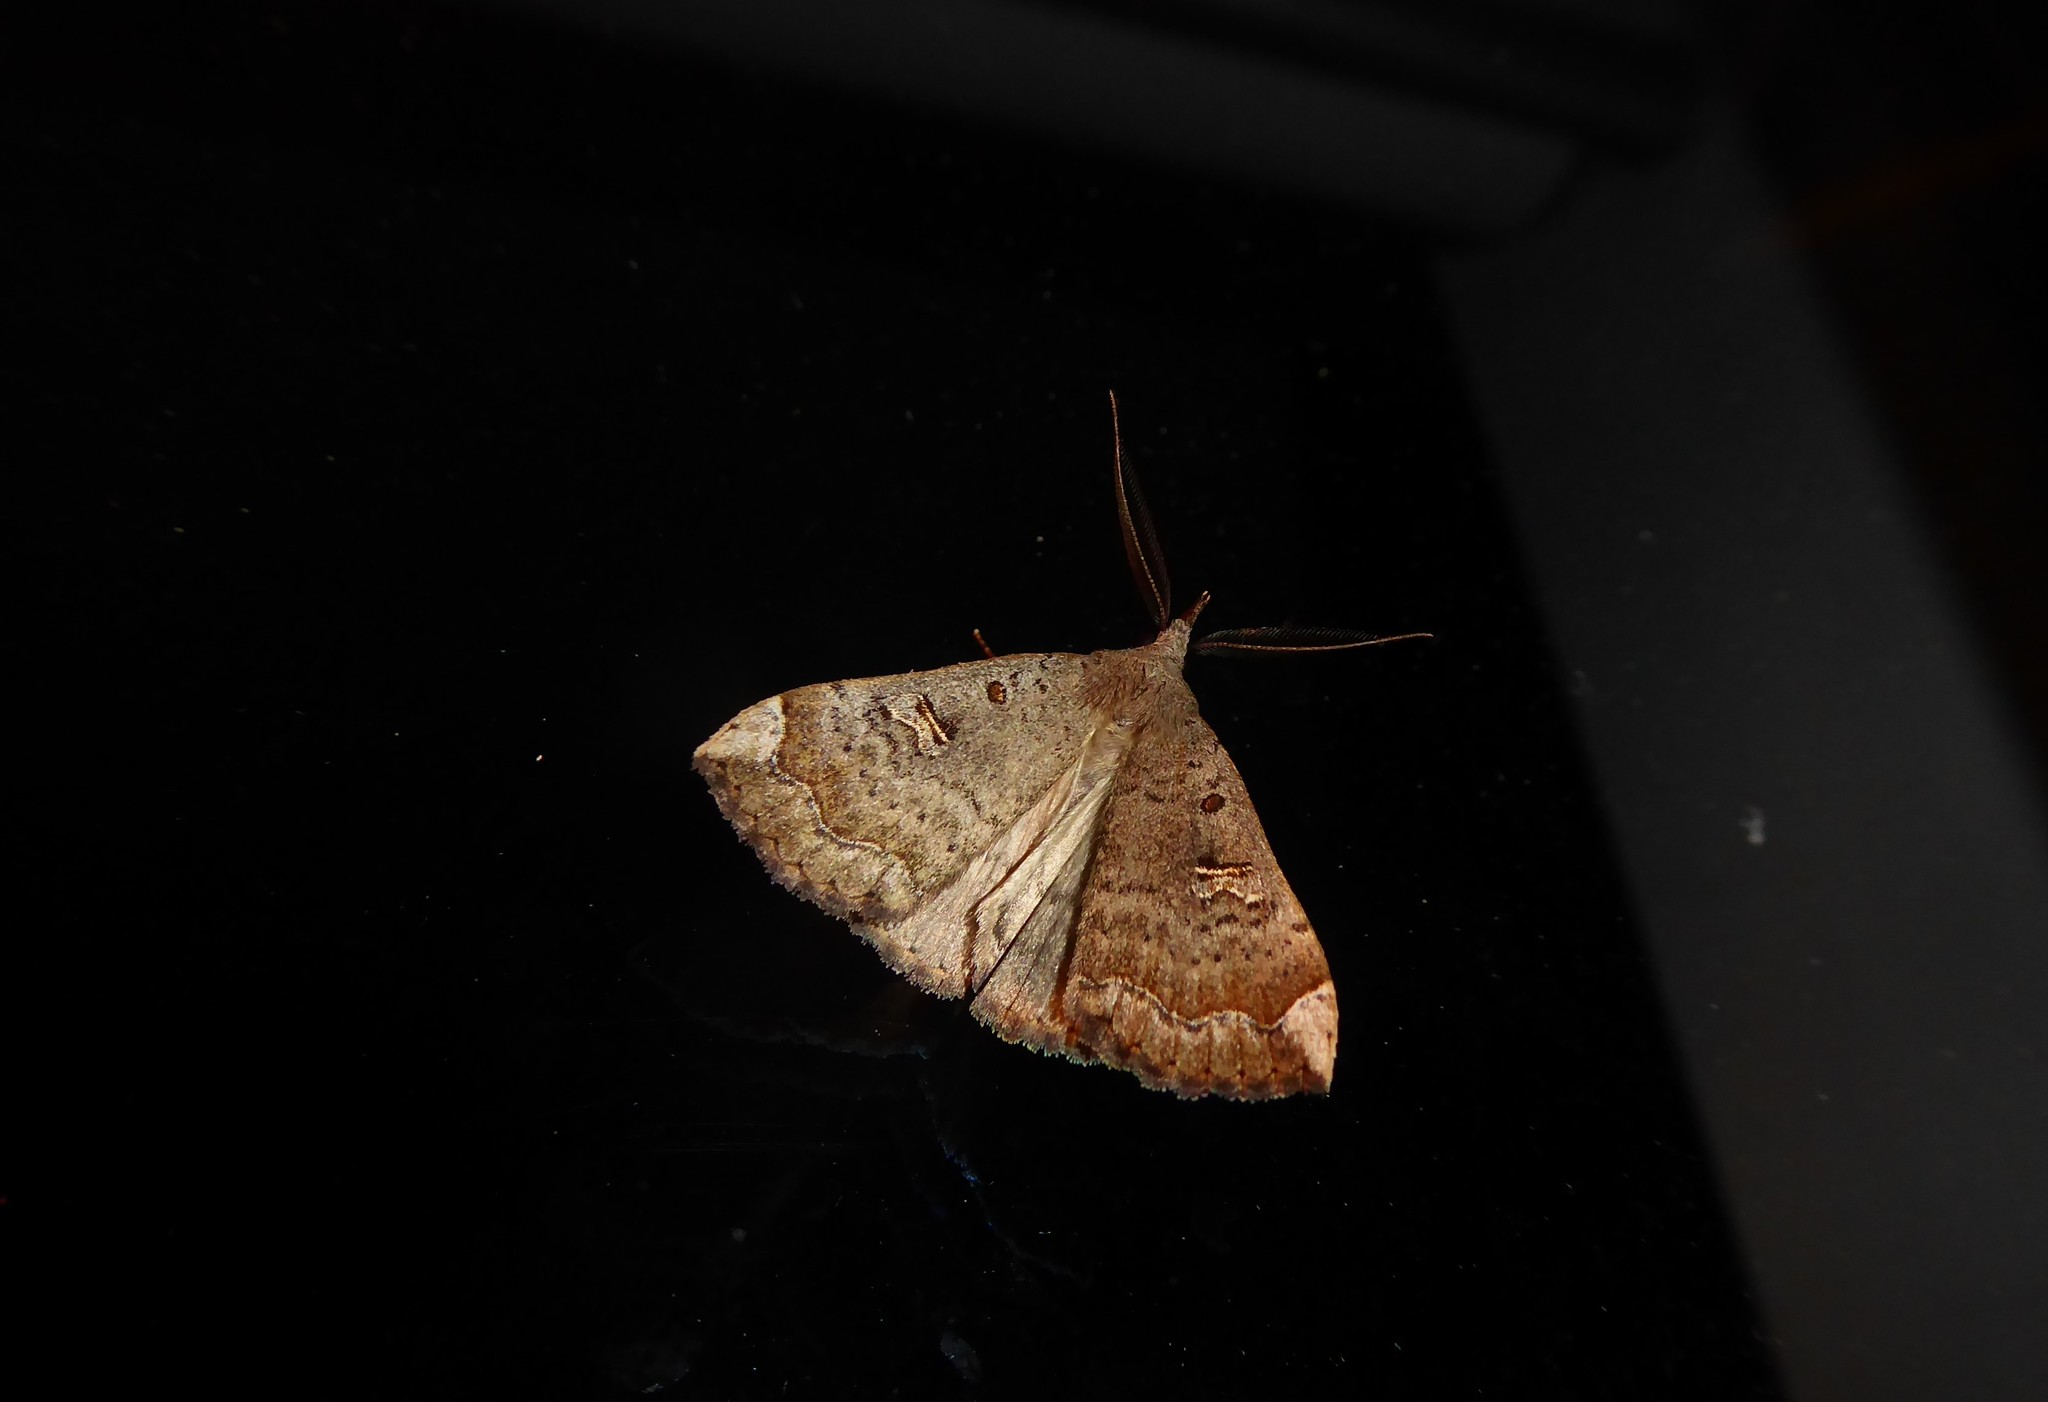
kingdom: Animalia
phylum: Arthropoda
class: Insecta
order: Lepidoptera
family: Erebidae
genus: Rhapsa
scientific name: Rhapsa scotosialis
